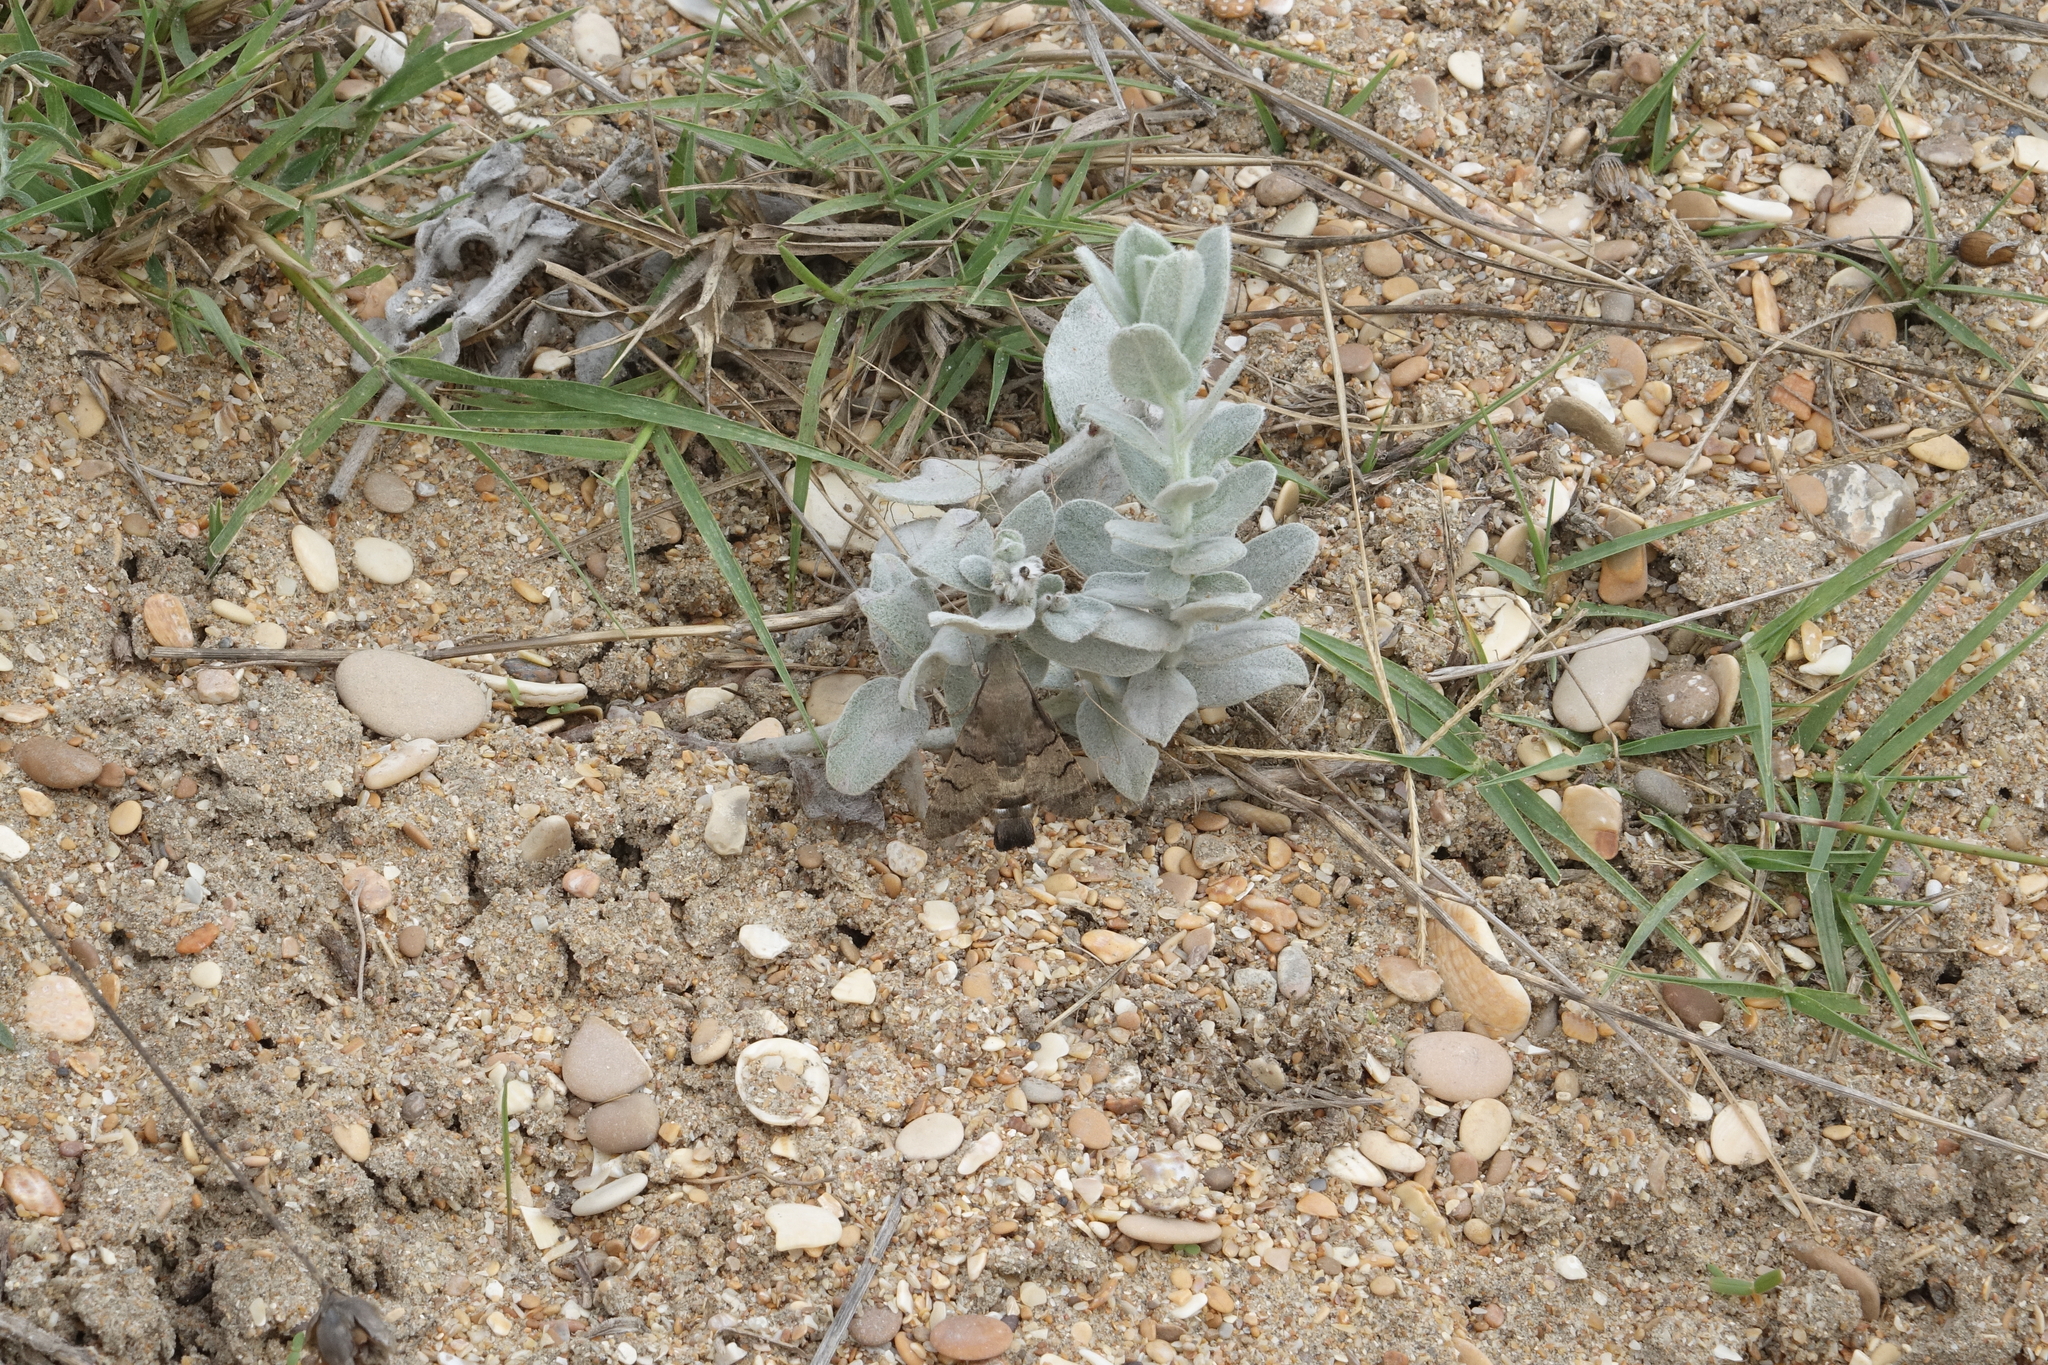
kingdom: Plantae
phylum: Tracheophyta
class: Magnoliopsida
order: Solanales
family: Convolvulaceae
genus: Convolvulus
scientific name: Convolvulus persicus
